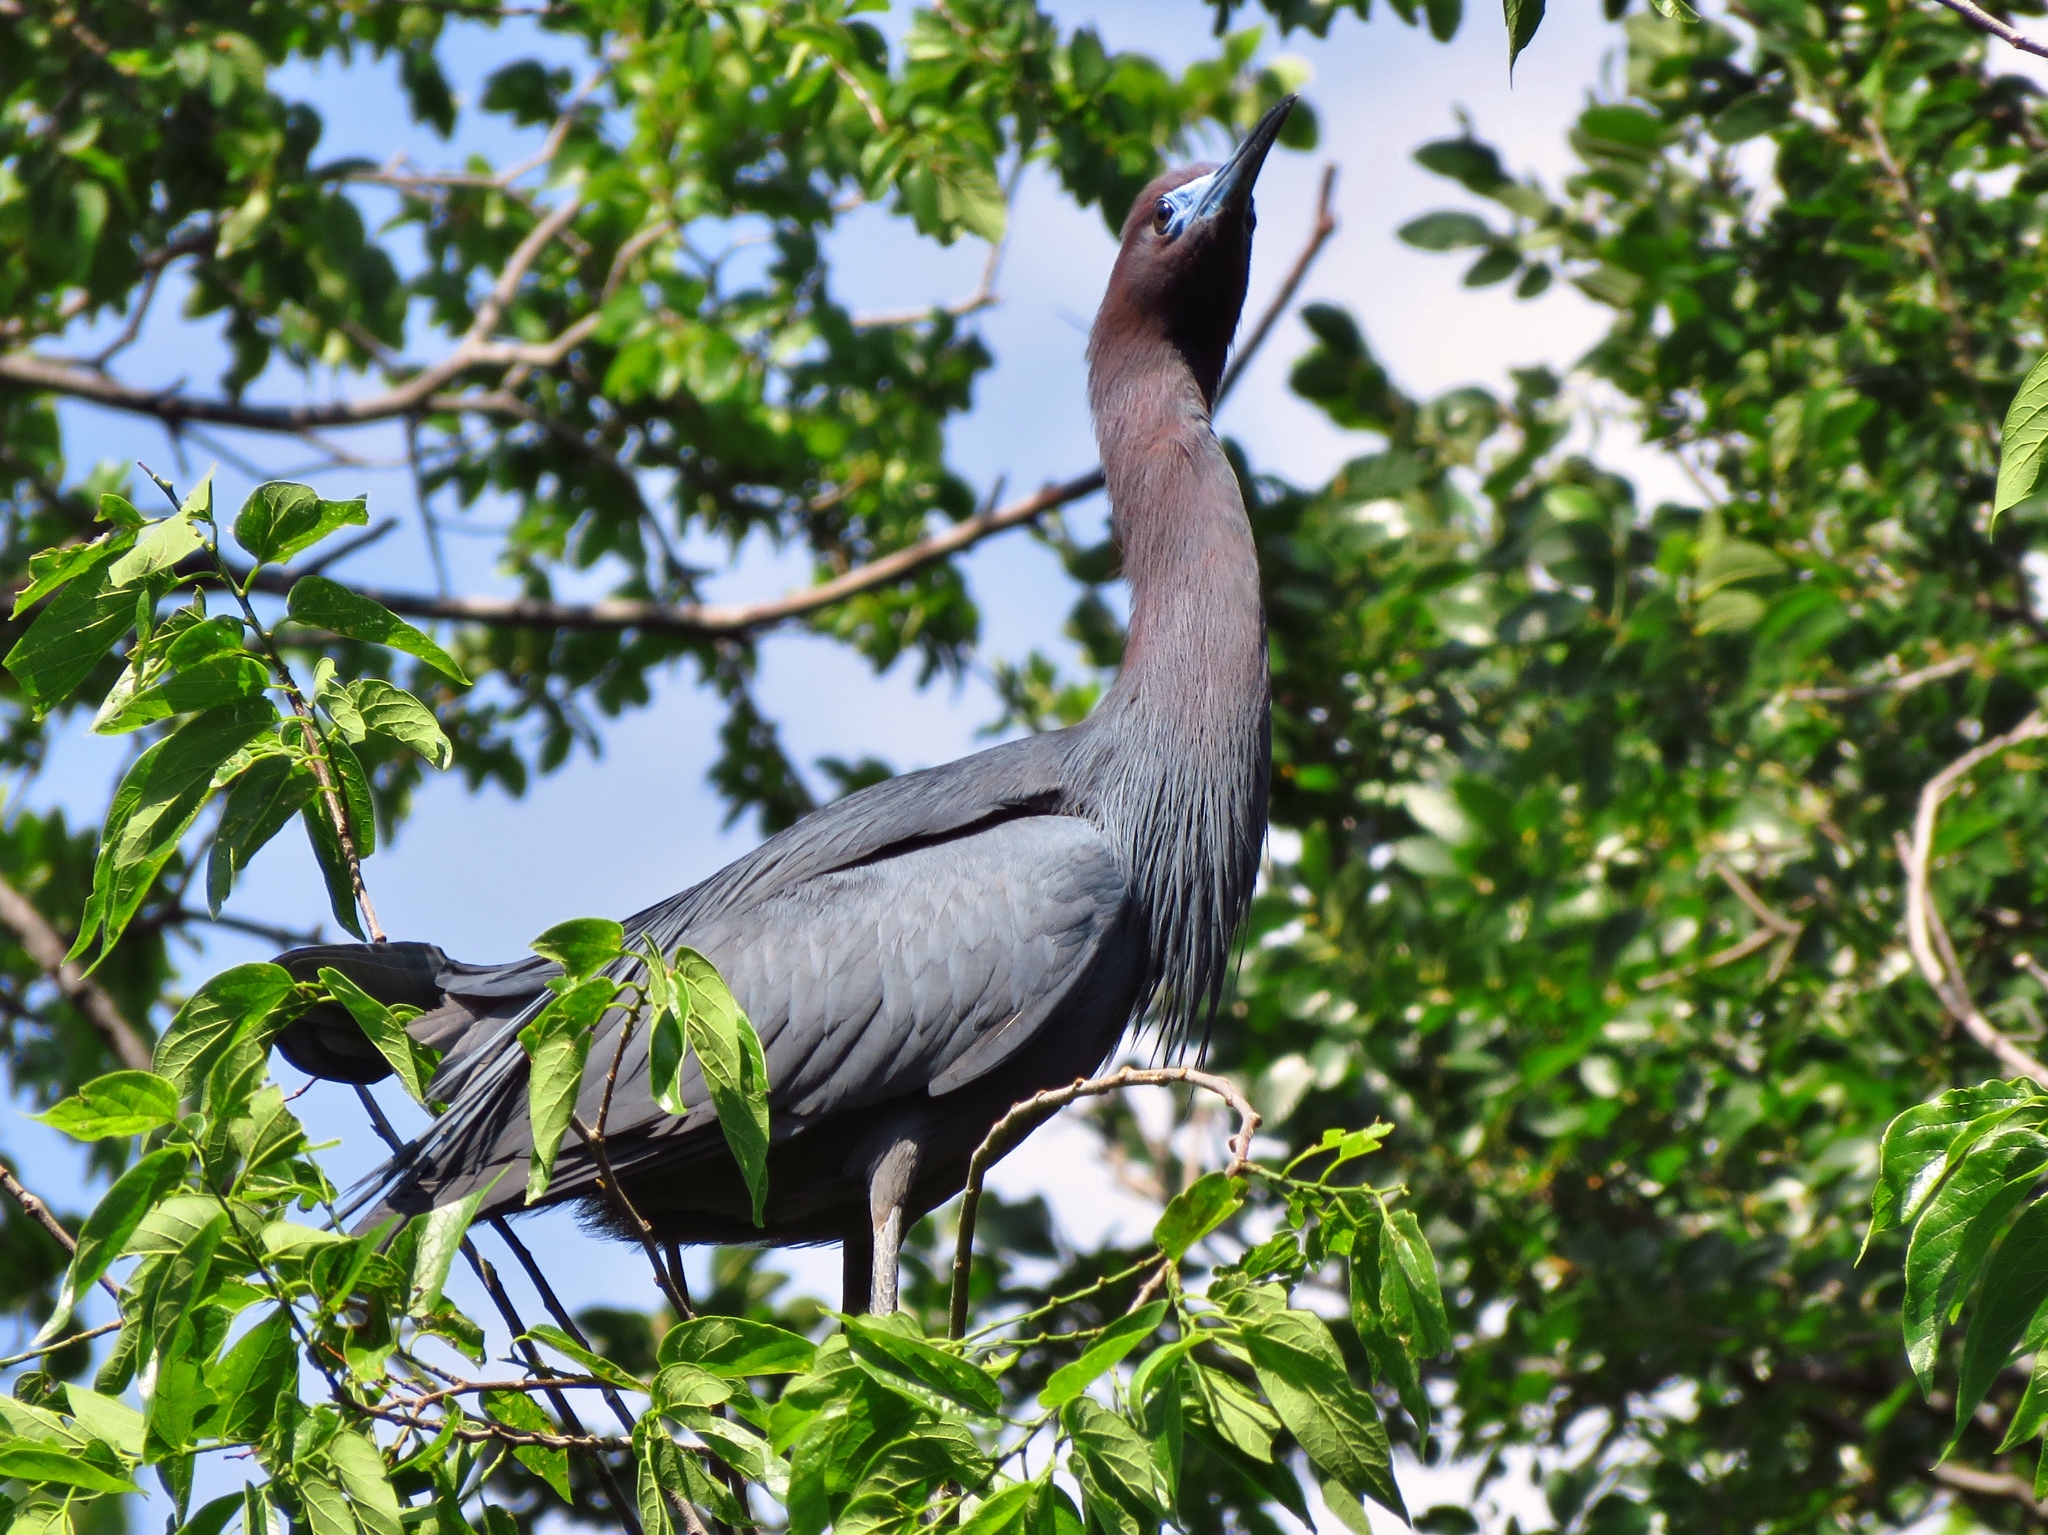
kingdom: Animalia
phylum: Chordata
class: Aves
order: Pelecaniformes
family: Ardeidae
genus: Egretta
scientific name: Egretta caerulea
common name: Little blue heron
